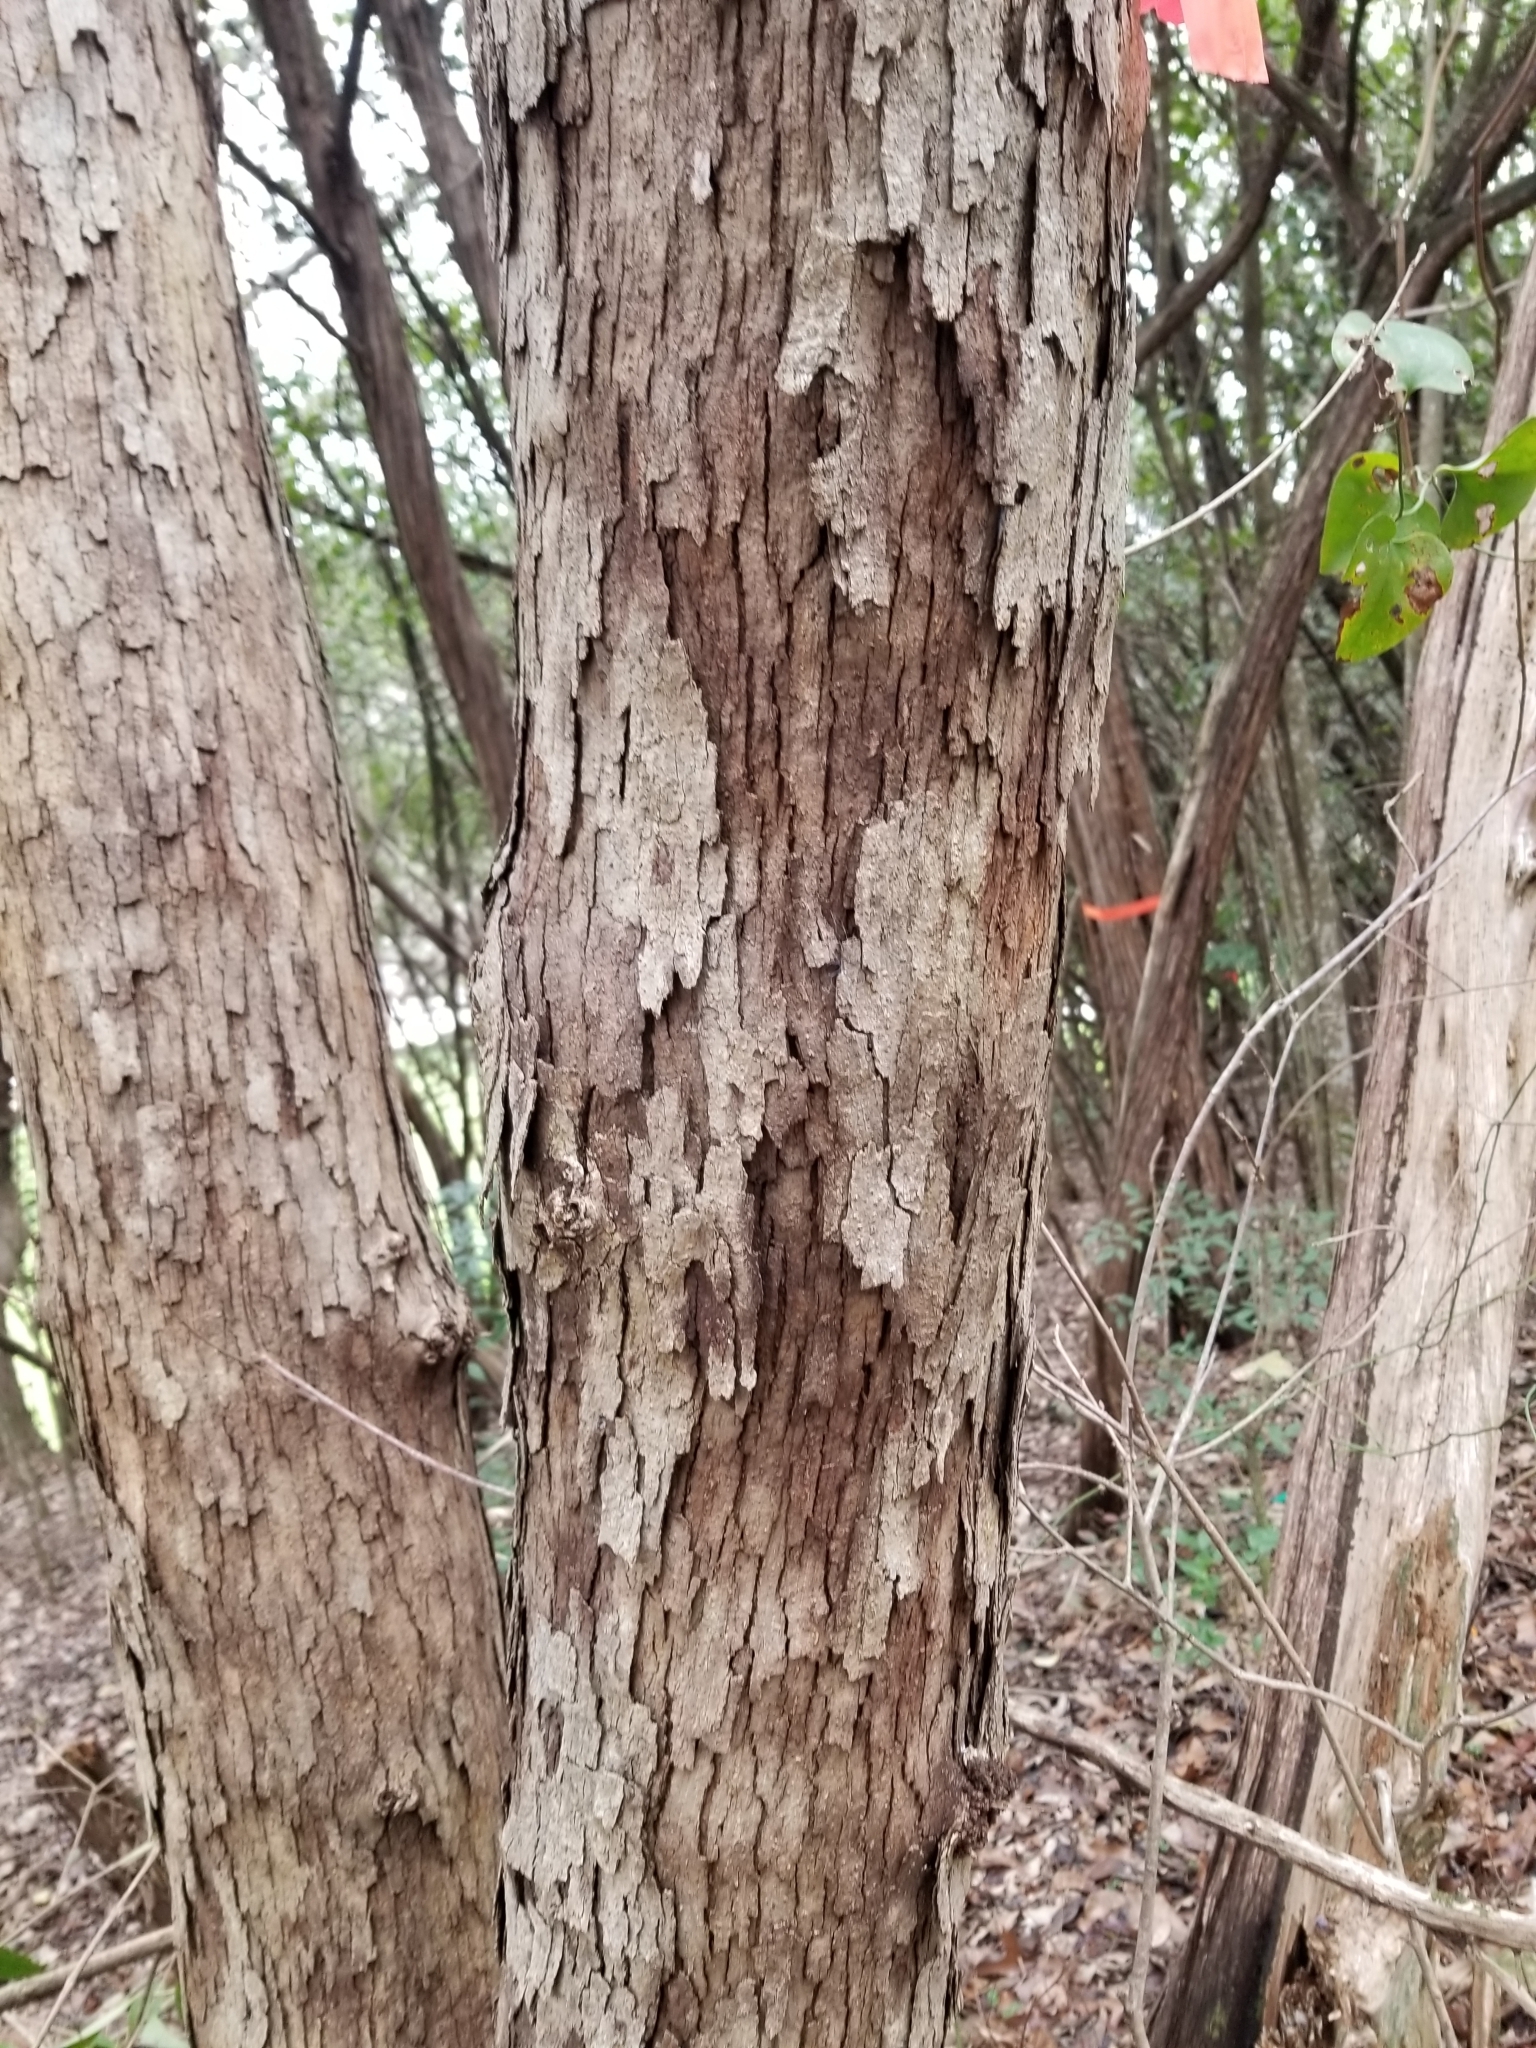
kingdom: Plantae
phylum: Tracheophyta
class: Magnoliopsida
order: Fagales
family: Fagaceae
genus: Quercus
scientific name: Quercus sinuata
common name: Durand oak
